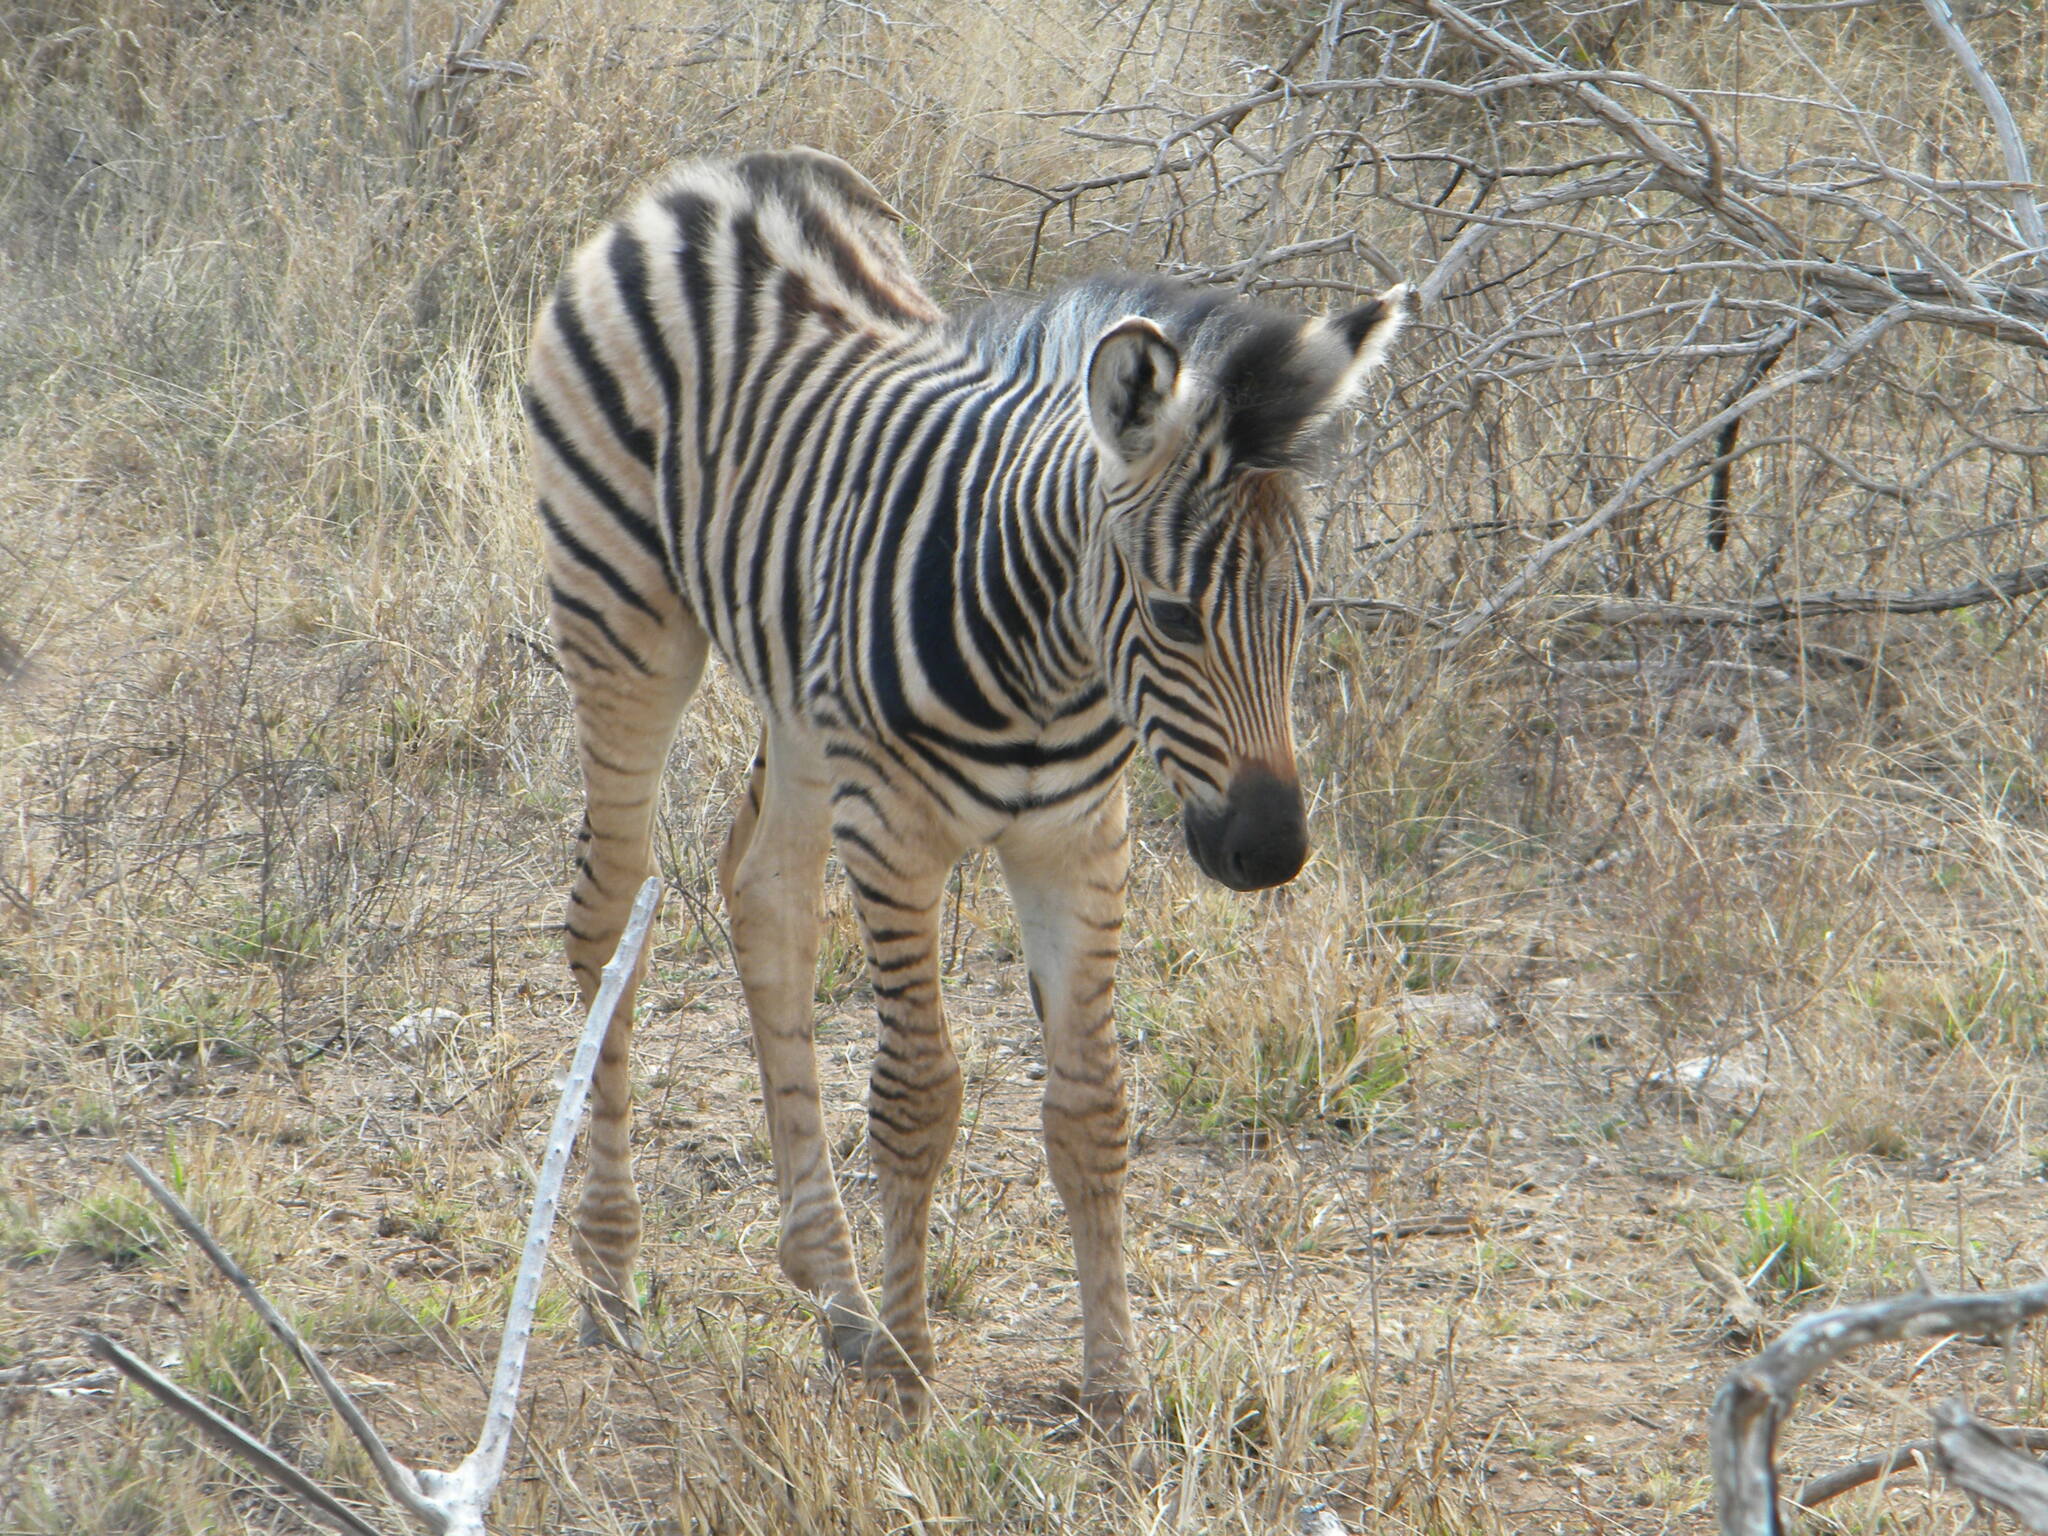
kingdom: Animalia
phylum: Chordata
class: Mammalia
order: Perissodactyla
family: Equidae
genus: Equus
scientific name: Equus quagga
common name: Plains zebra
